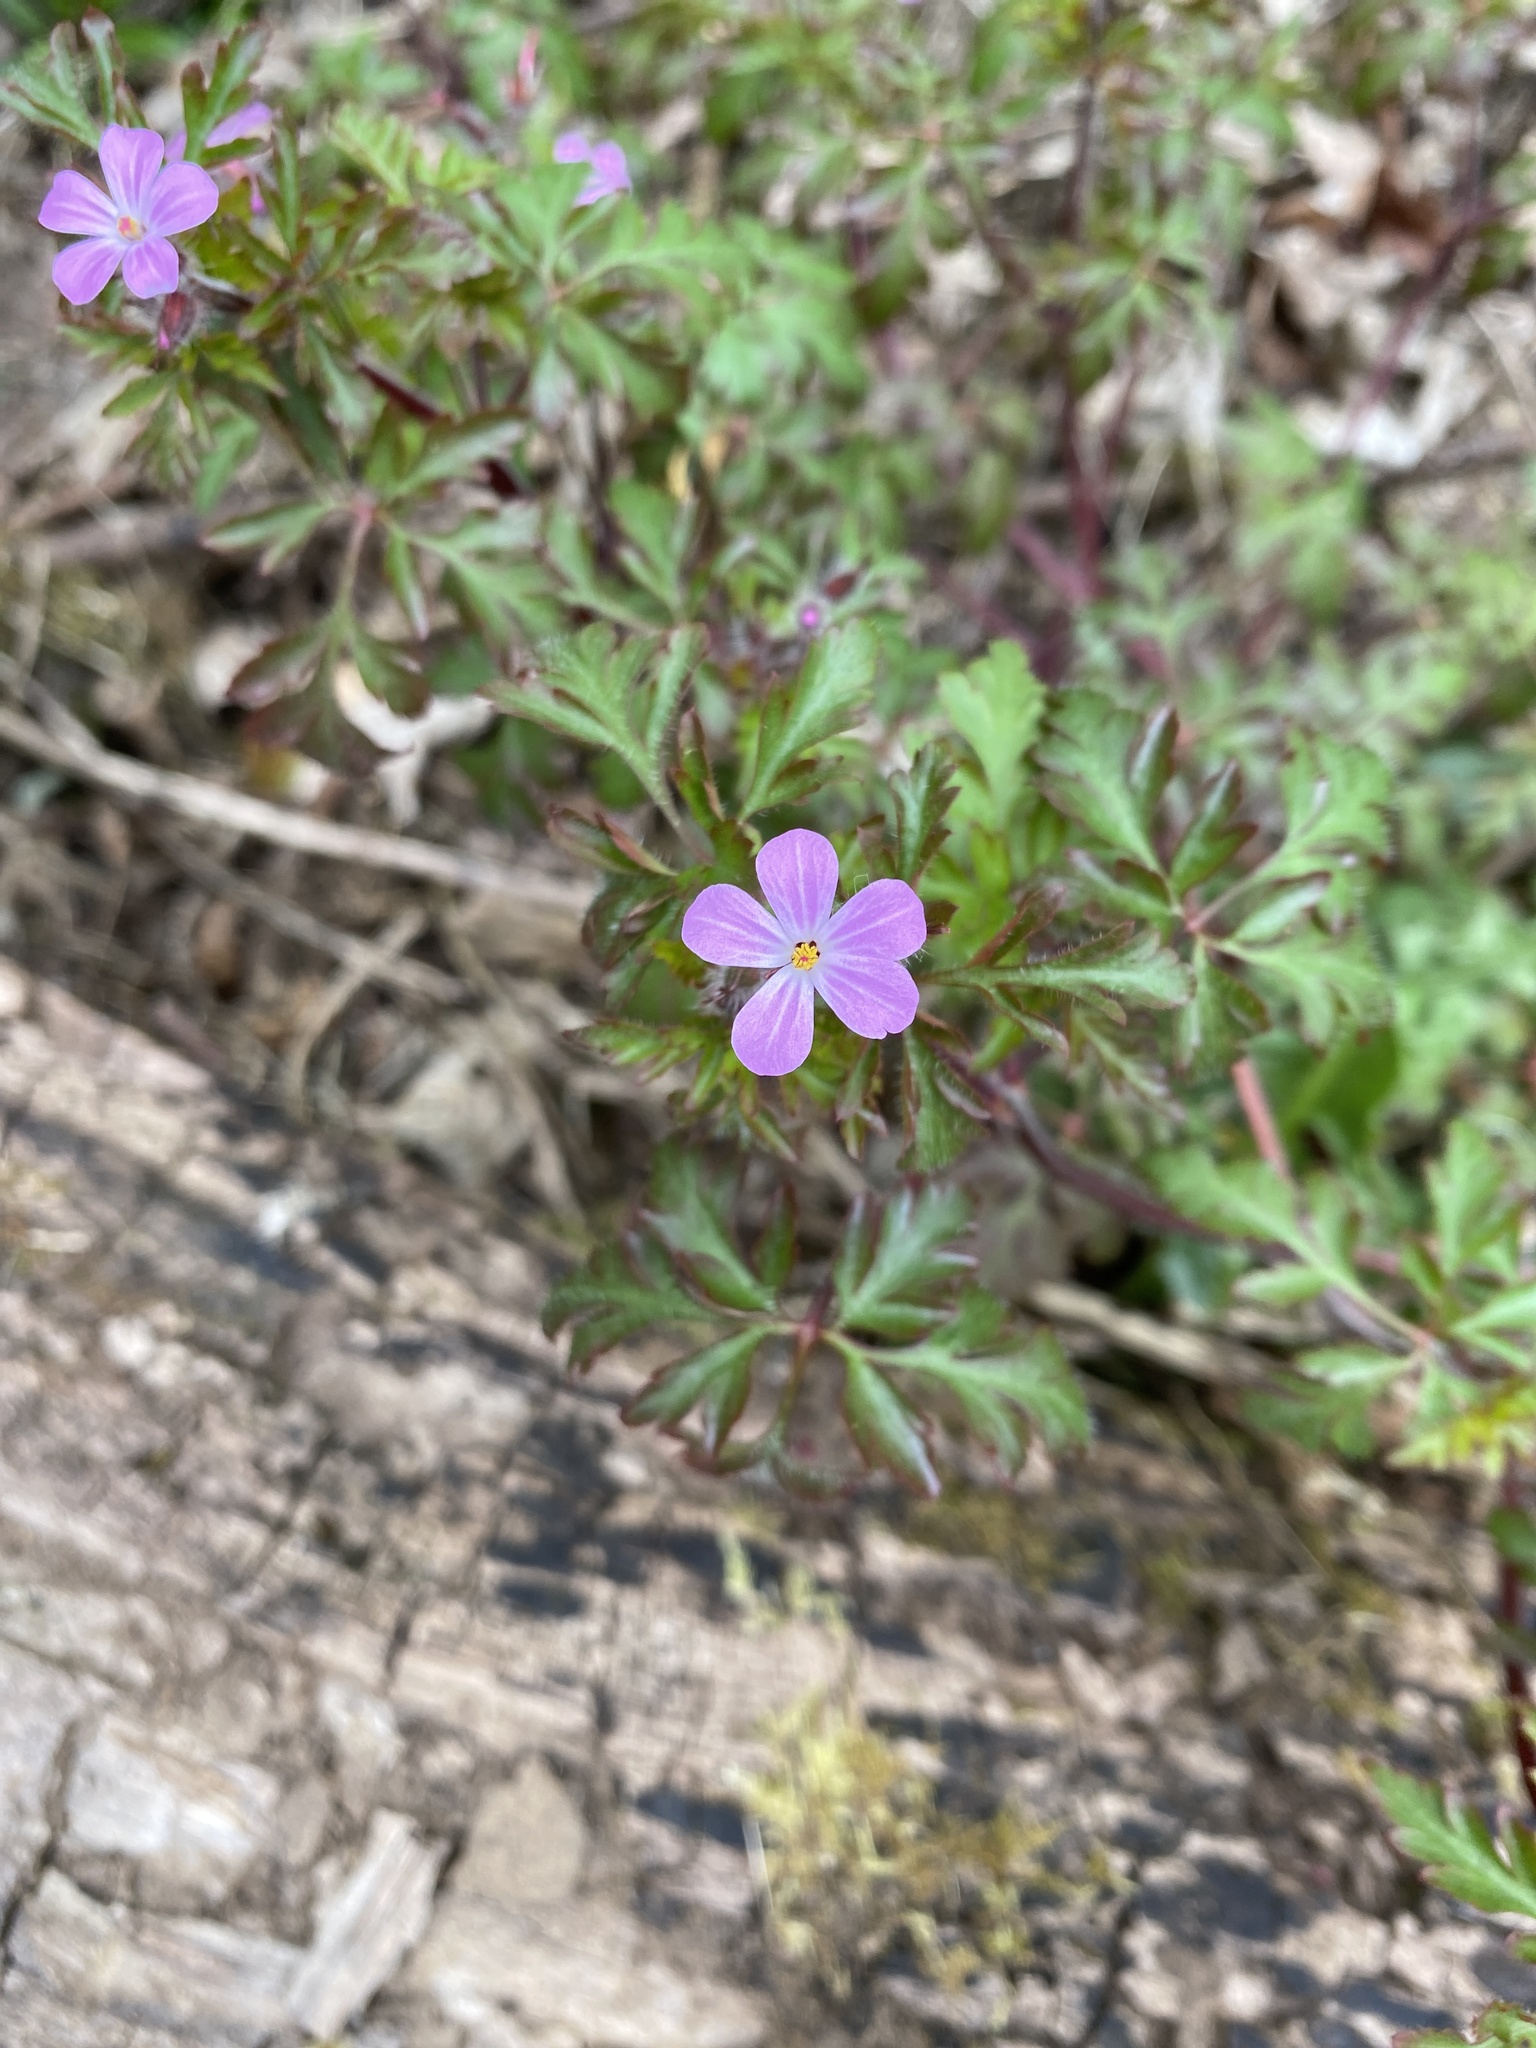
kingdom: Plantae
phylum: Tracheophyta
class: Magnoliopsida
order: Geraniales
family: Geraniaceae
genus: Geranium
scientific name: Geranium robertianum
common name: Herb-robert
